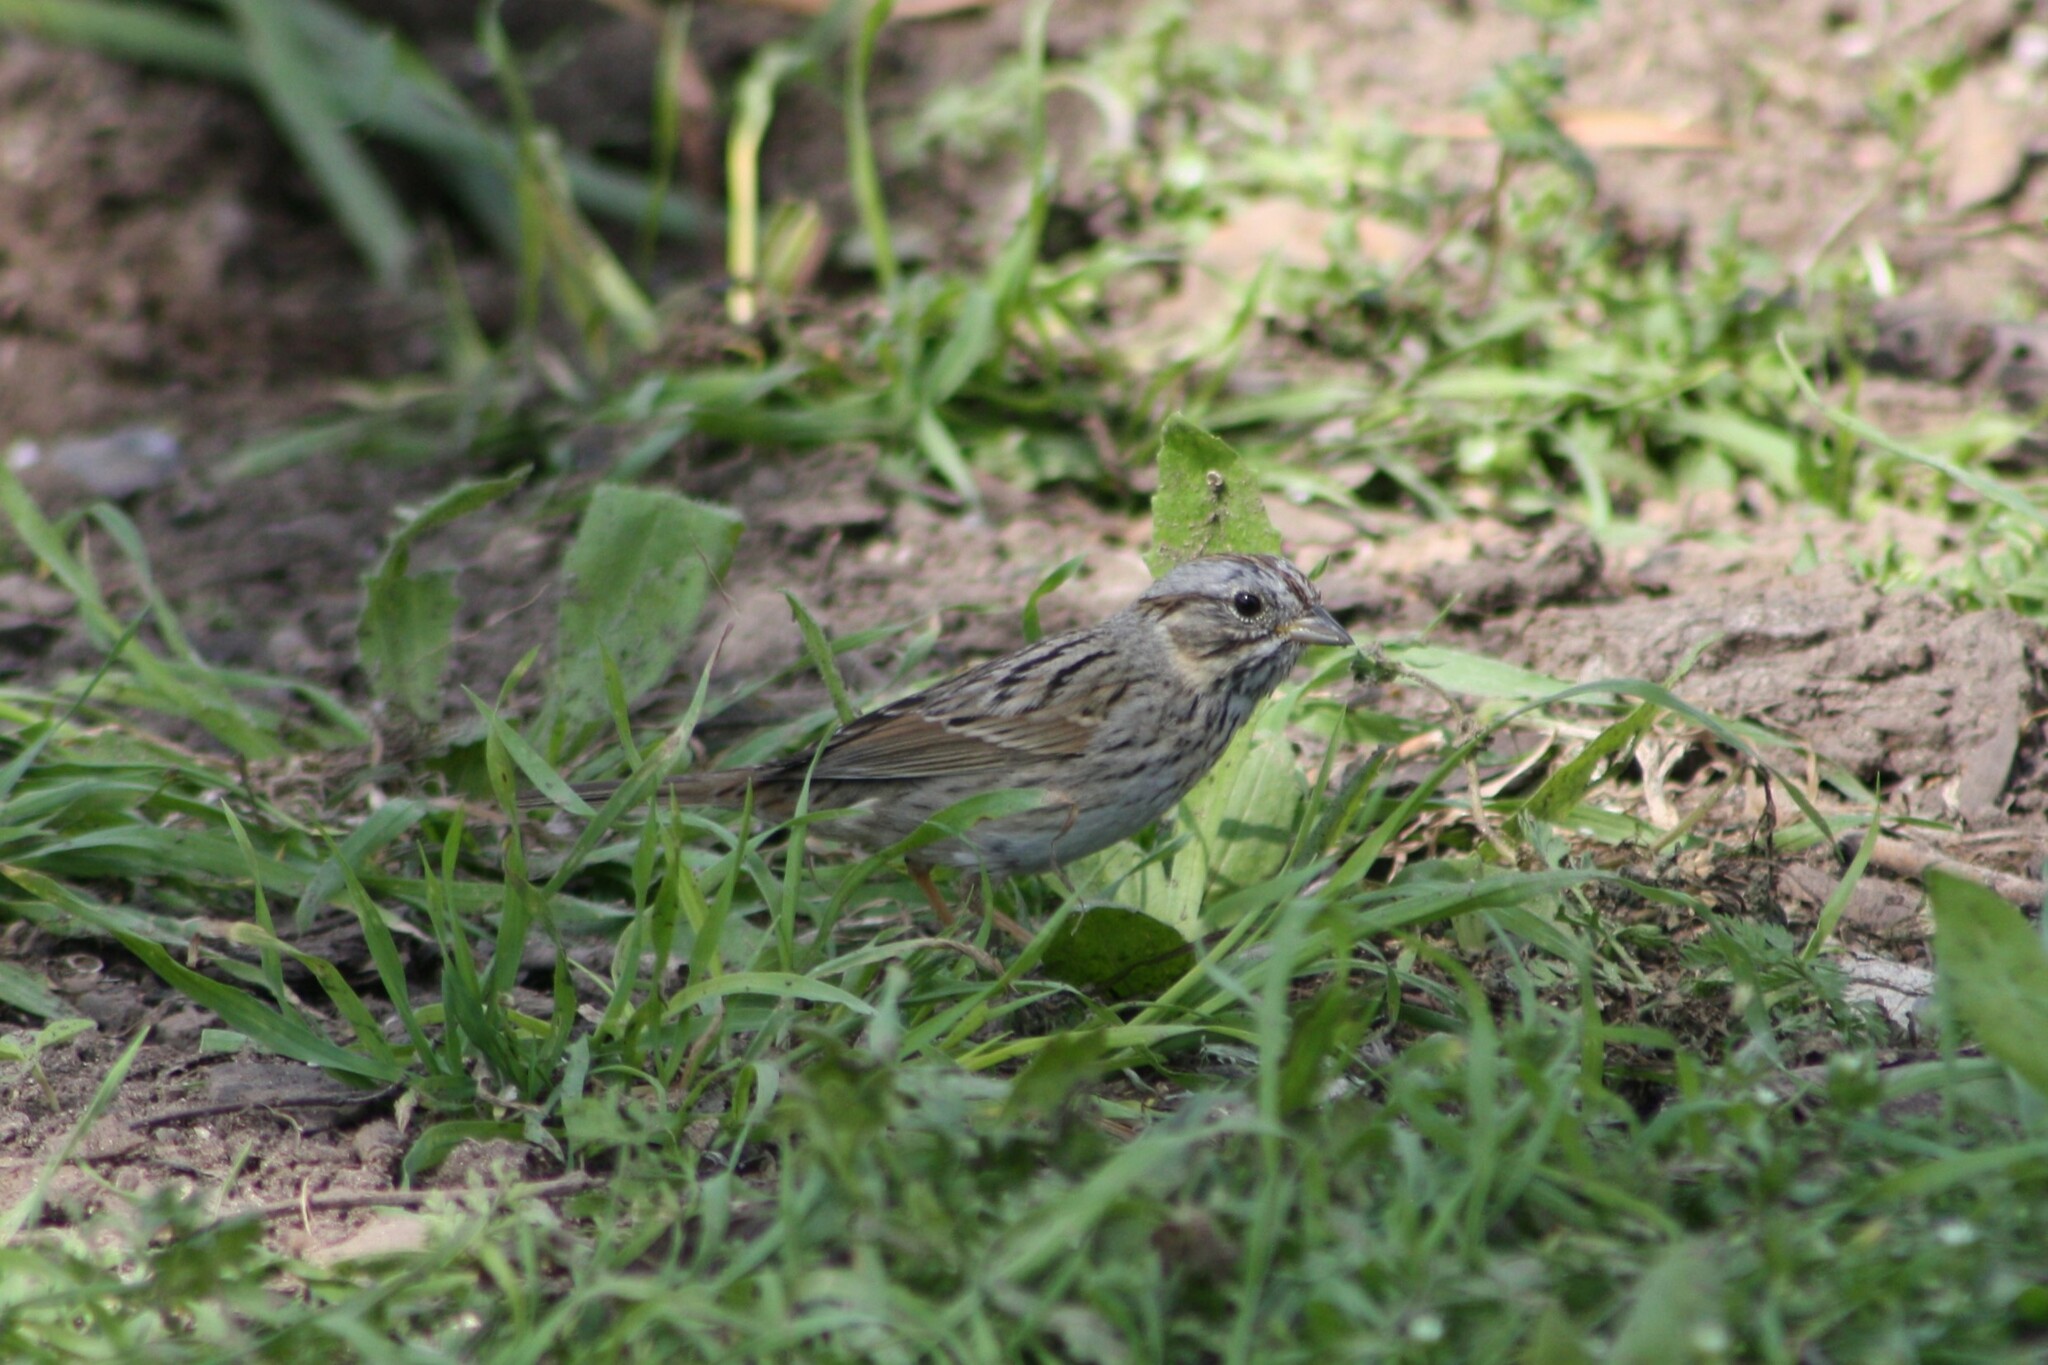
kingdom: Animalia
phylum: Chordata
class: Aves
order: Passeriformes
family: Passerellidae
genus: Melospiza
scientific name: Melospiza lincolnii
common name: Lincoln's sparrow
